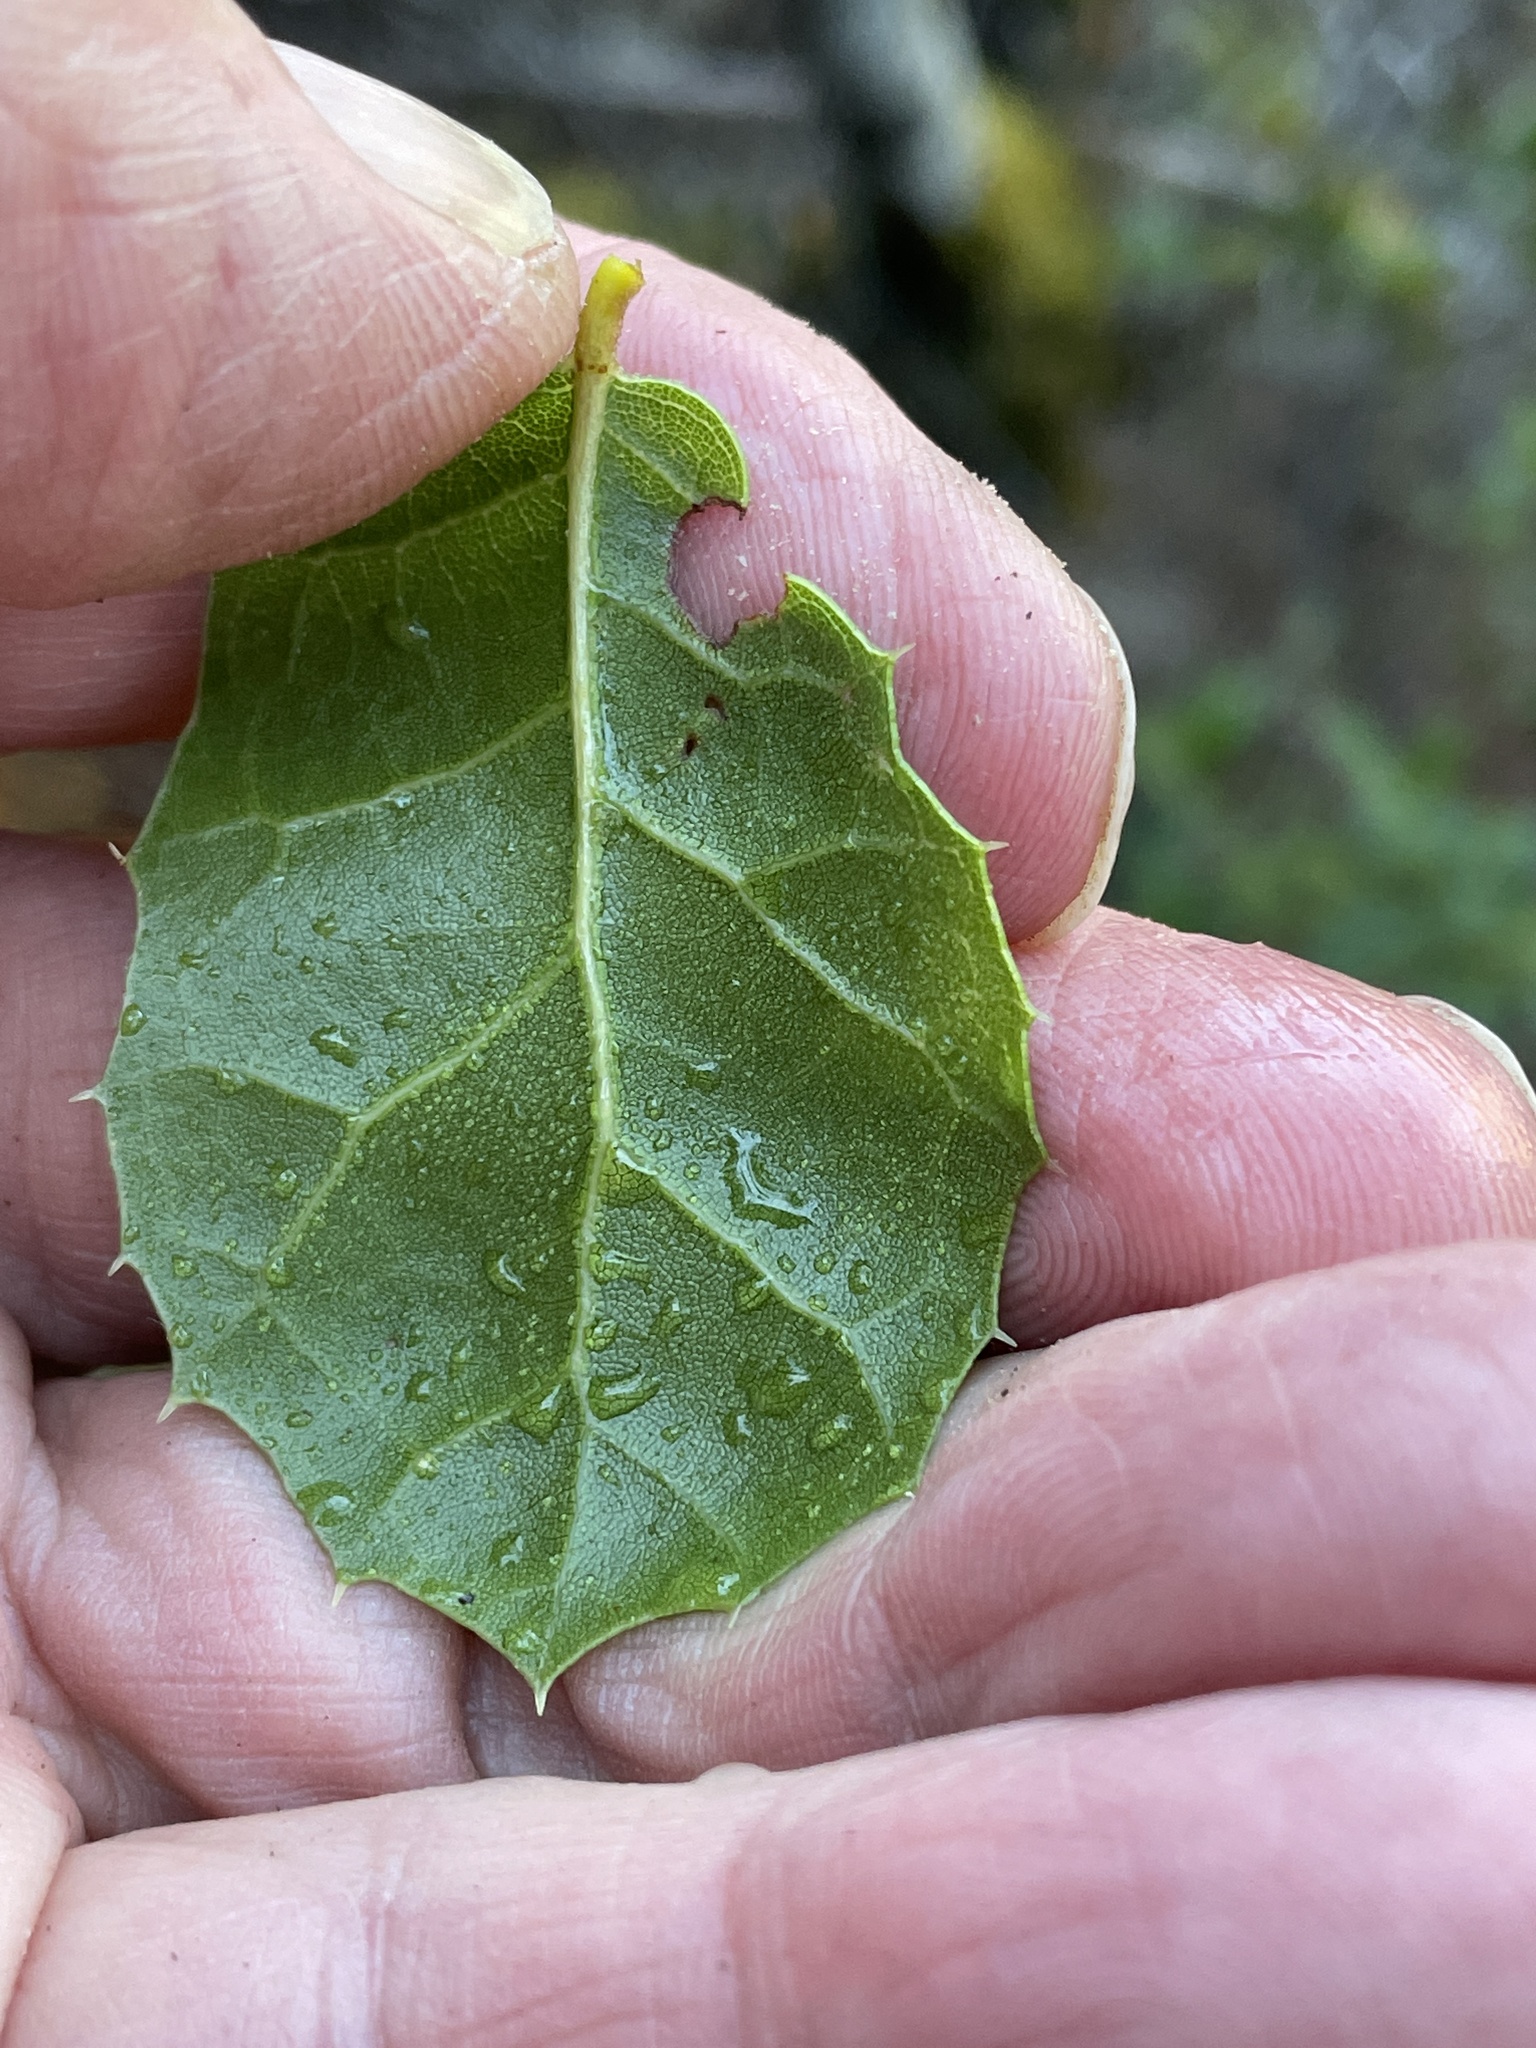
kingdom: Plantae
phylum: Tracheophyta
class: Magnoliopsida
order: Fagales
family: Fagaceae
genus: Quercus
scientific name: Quercus agrifolia
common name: California live oak
